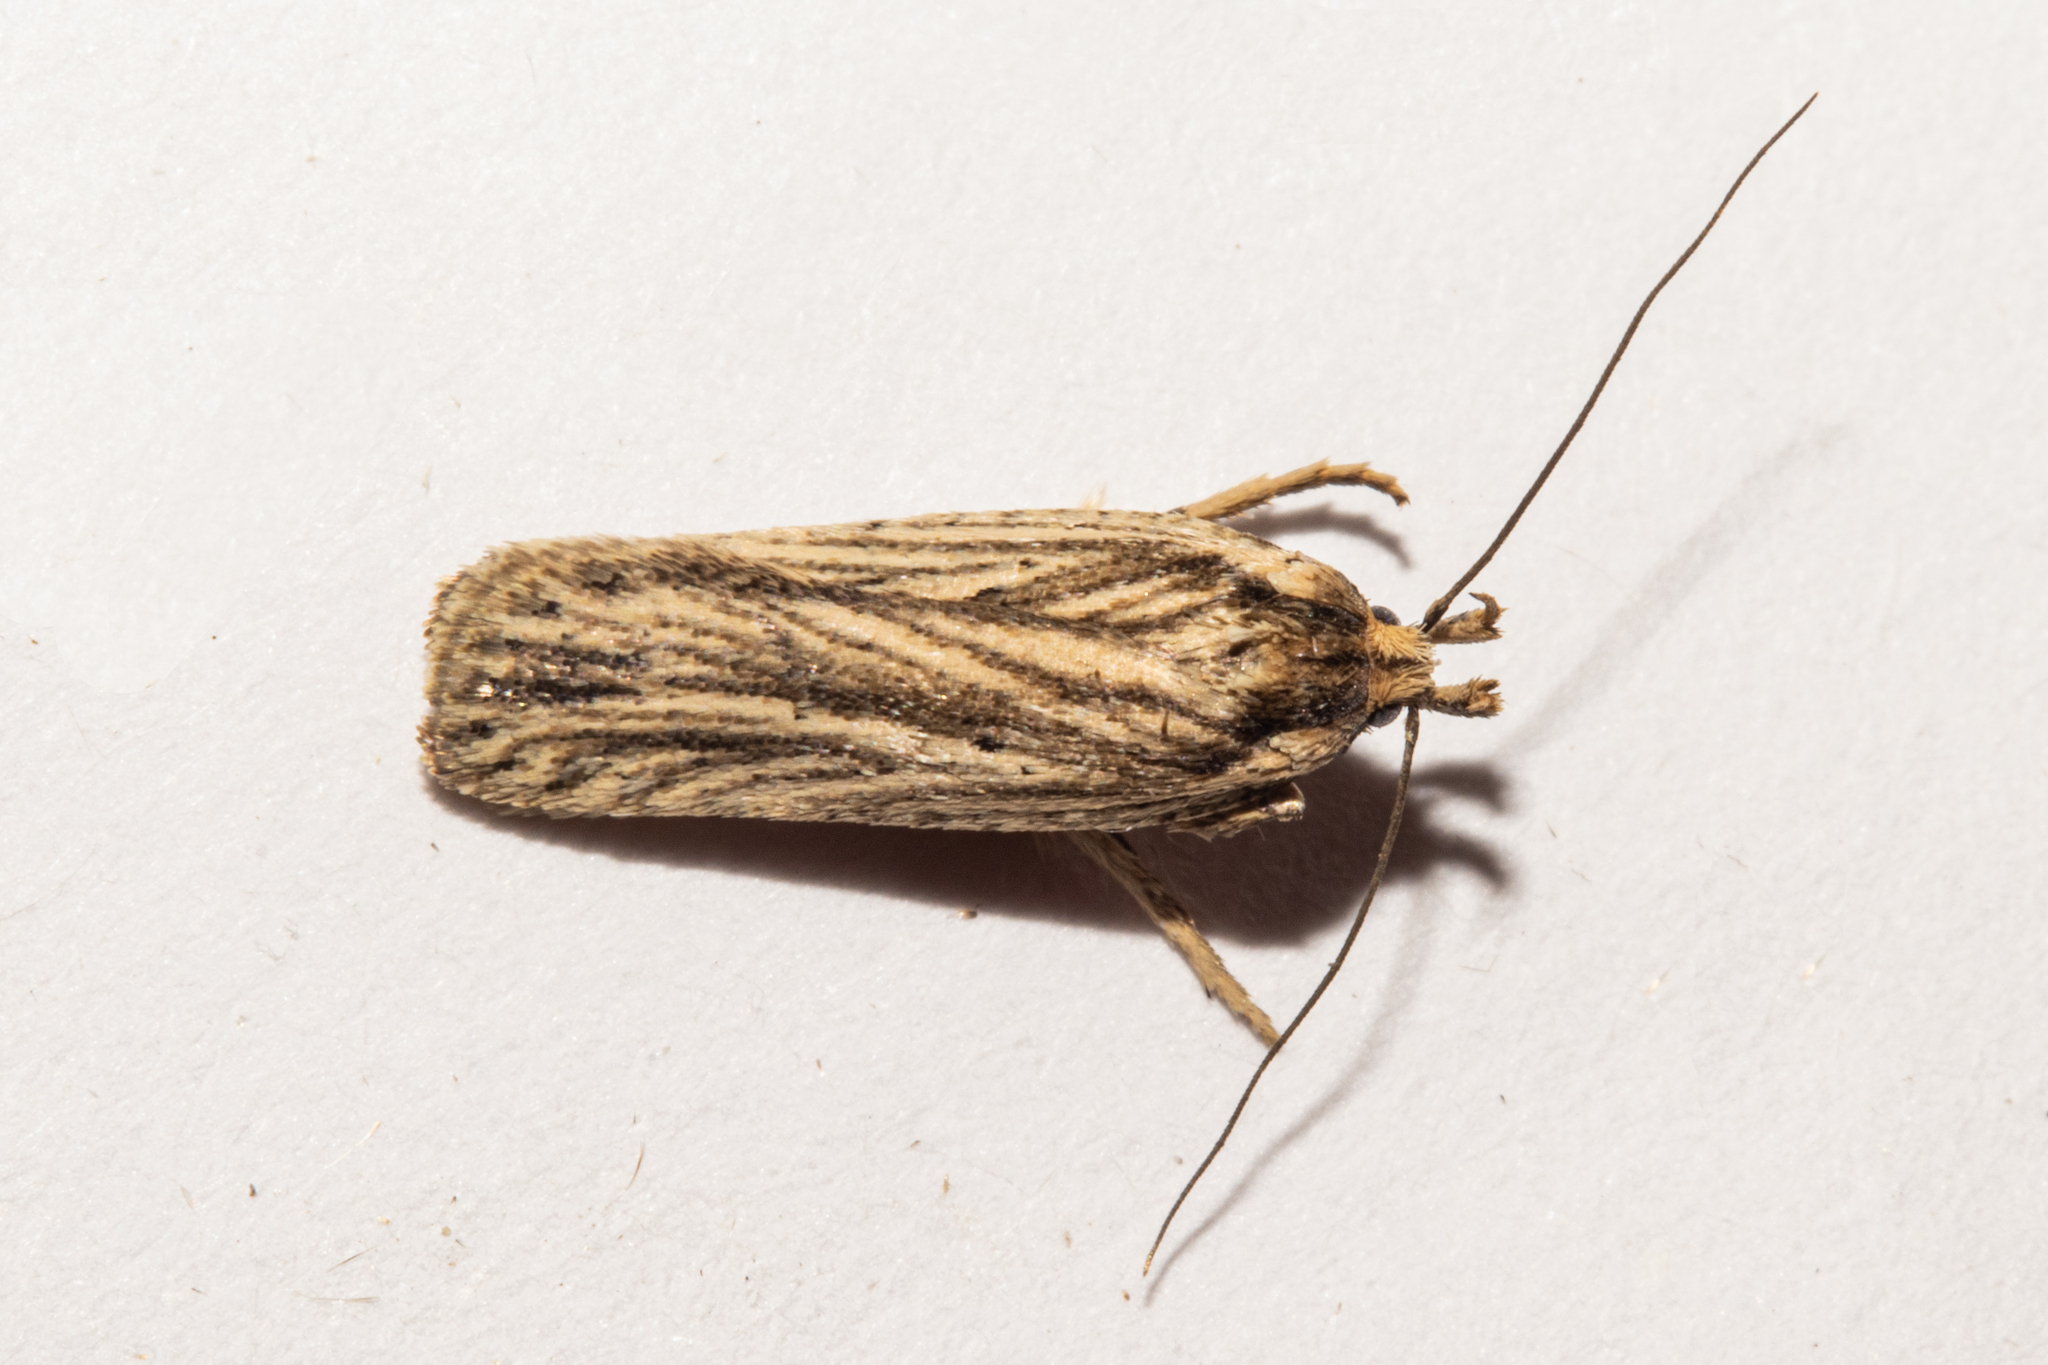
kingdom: Animalia
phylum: Arthropoda
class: Insecta
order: Lepidoptera
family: Depressariidae
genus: Agonopterix
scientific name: Agonopterix
